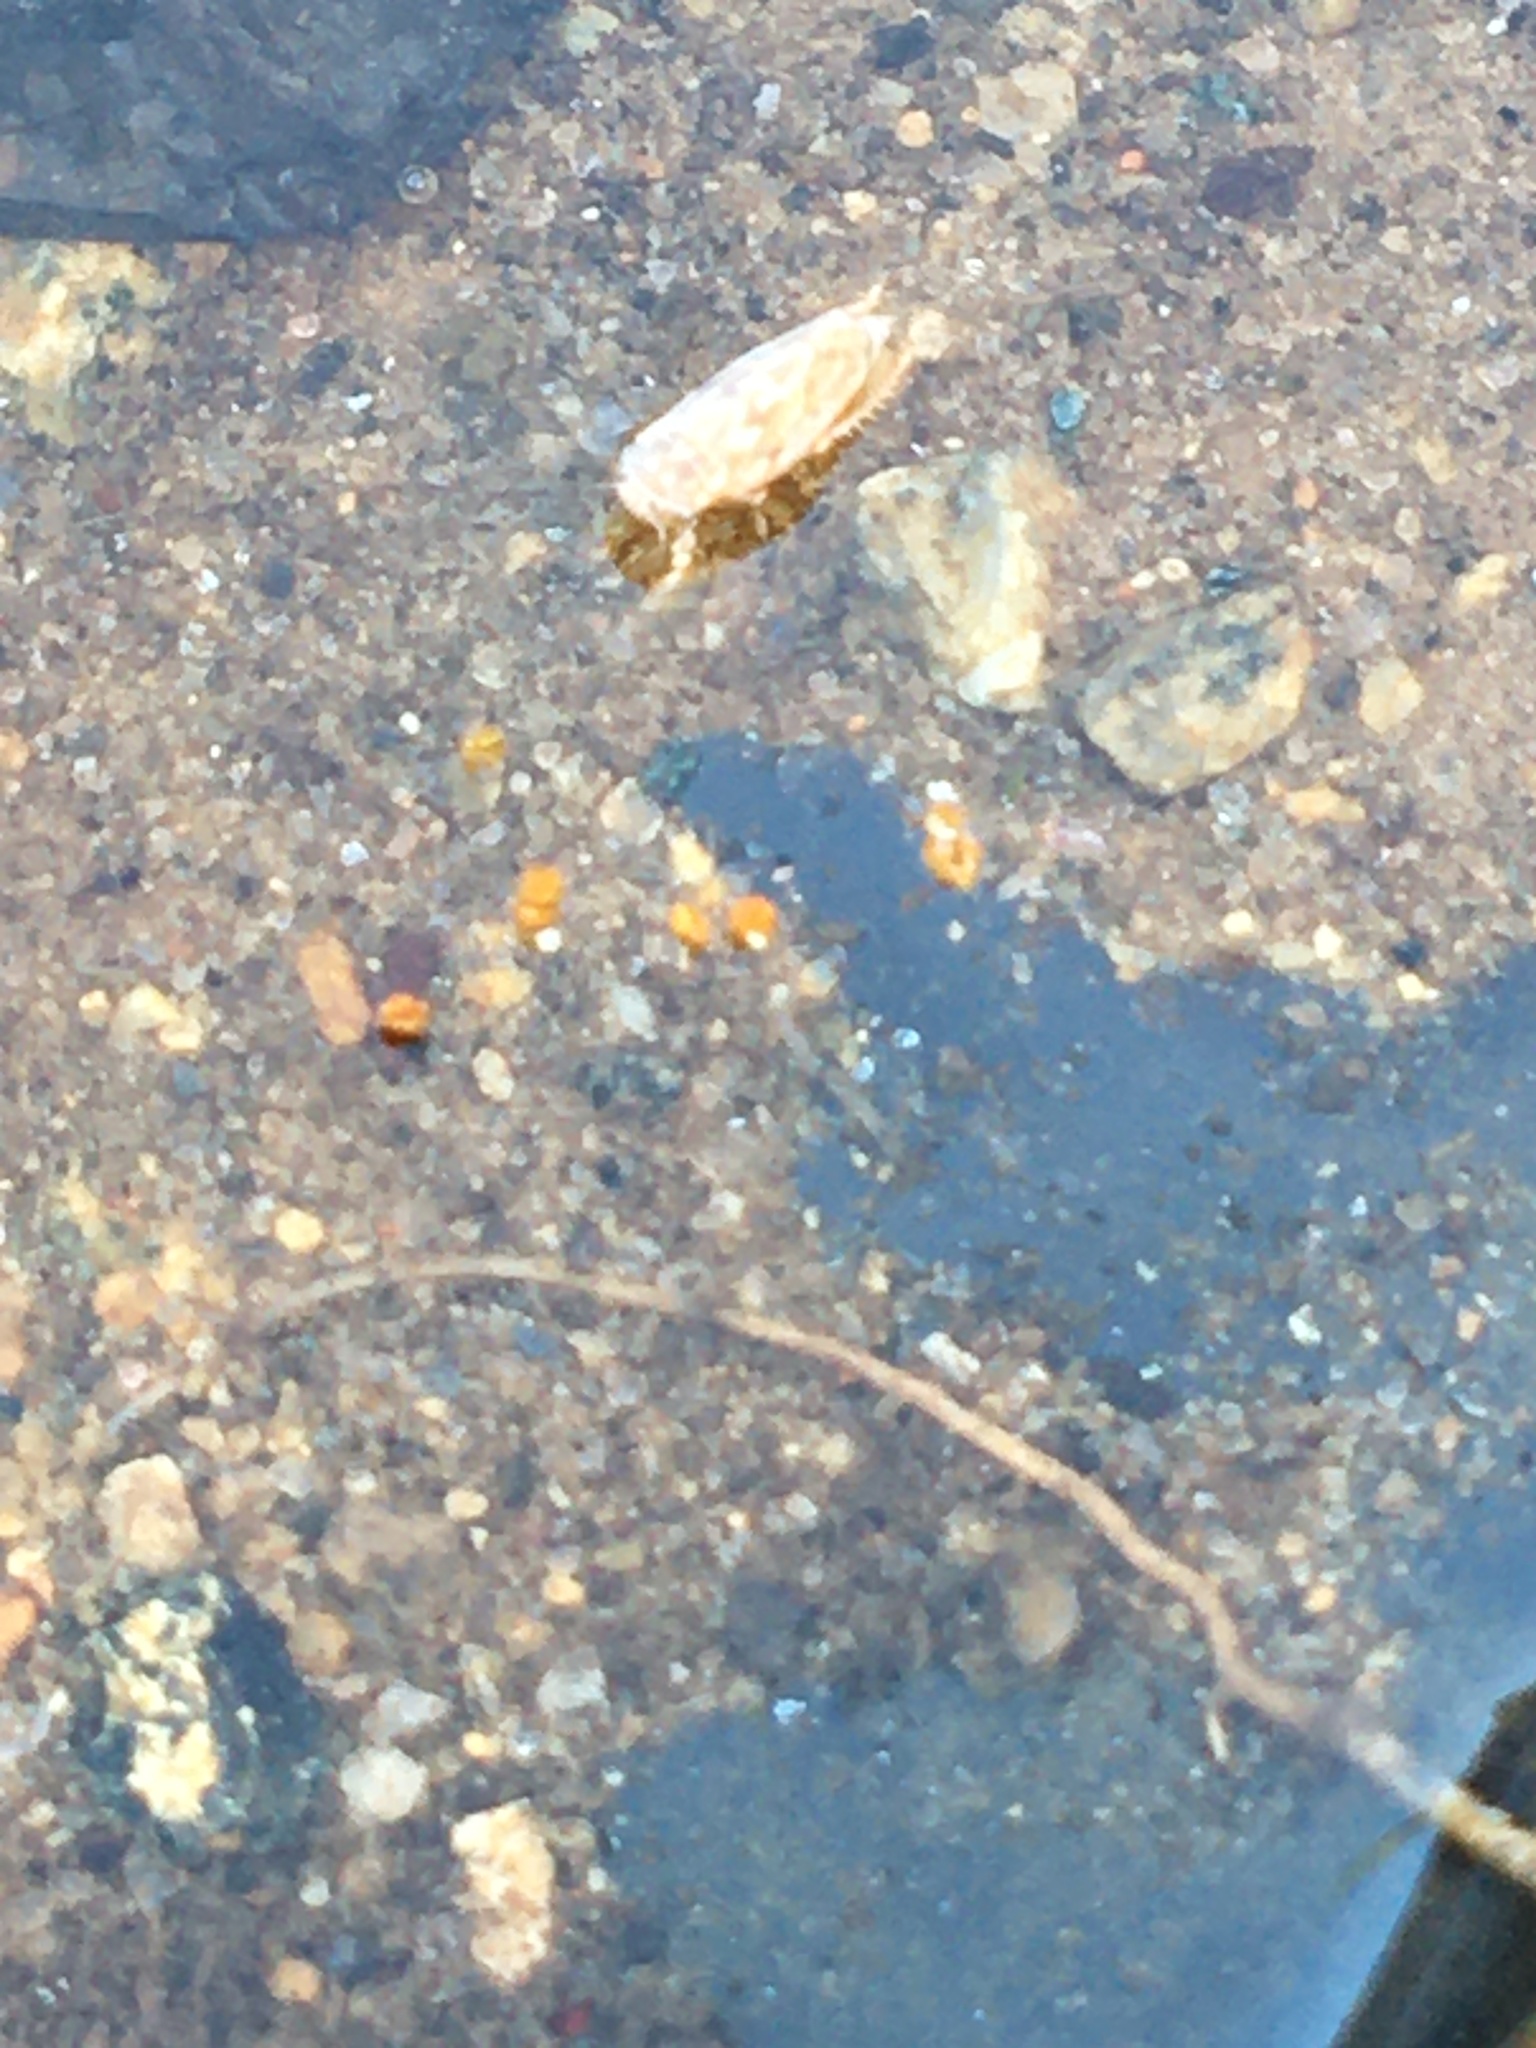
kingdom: Animalia
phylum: Arthropoda
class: Insecta
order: Hemiptera
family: Cicadellidae
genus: Ceratagallia
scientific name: Ceratagallia
